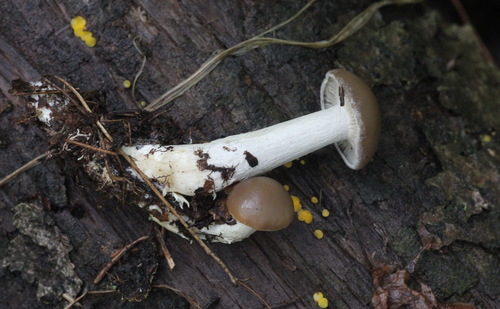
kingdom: Fungi
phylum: Basidiomycota
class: Agaricomycetes
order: Agaricales
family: Lyophyllaceae
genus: Lyophyllum
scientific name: Lyophyllum decastes
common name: Clustered domecap
